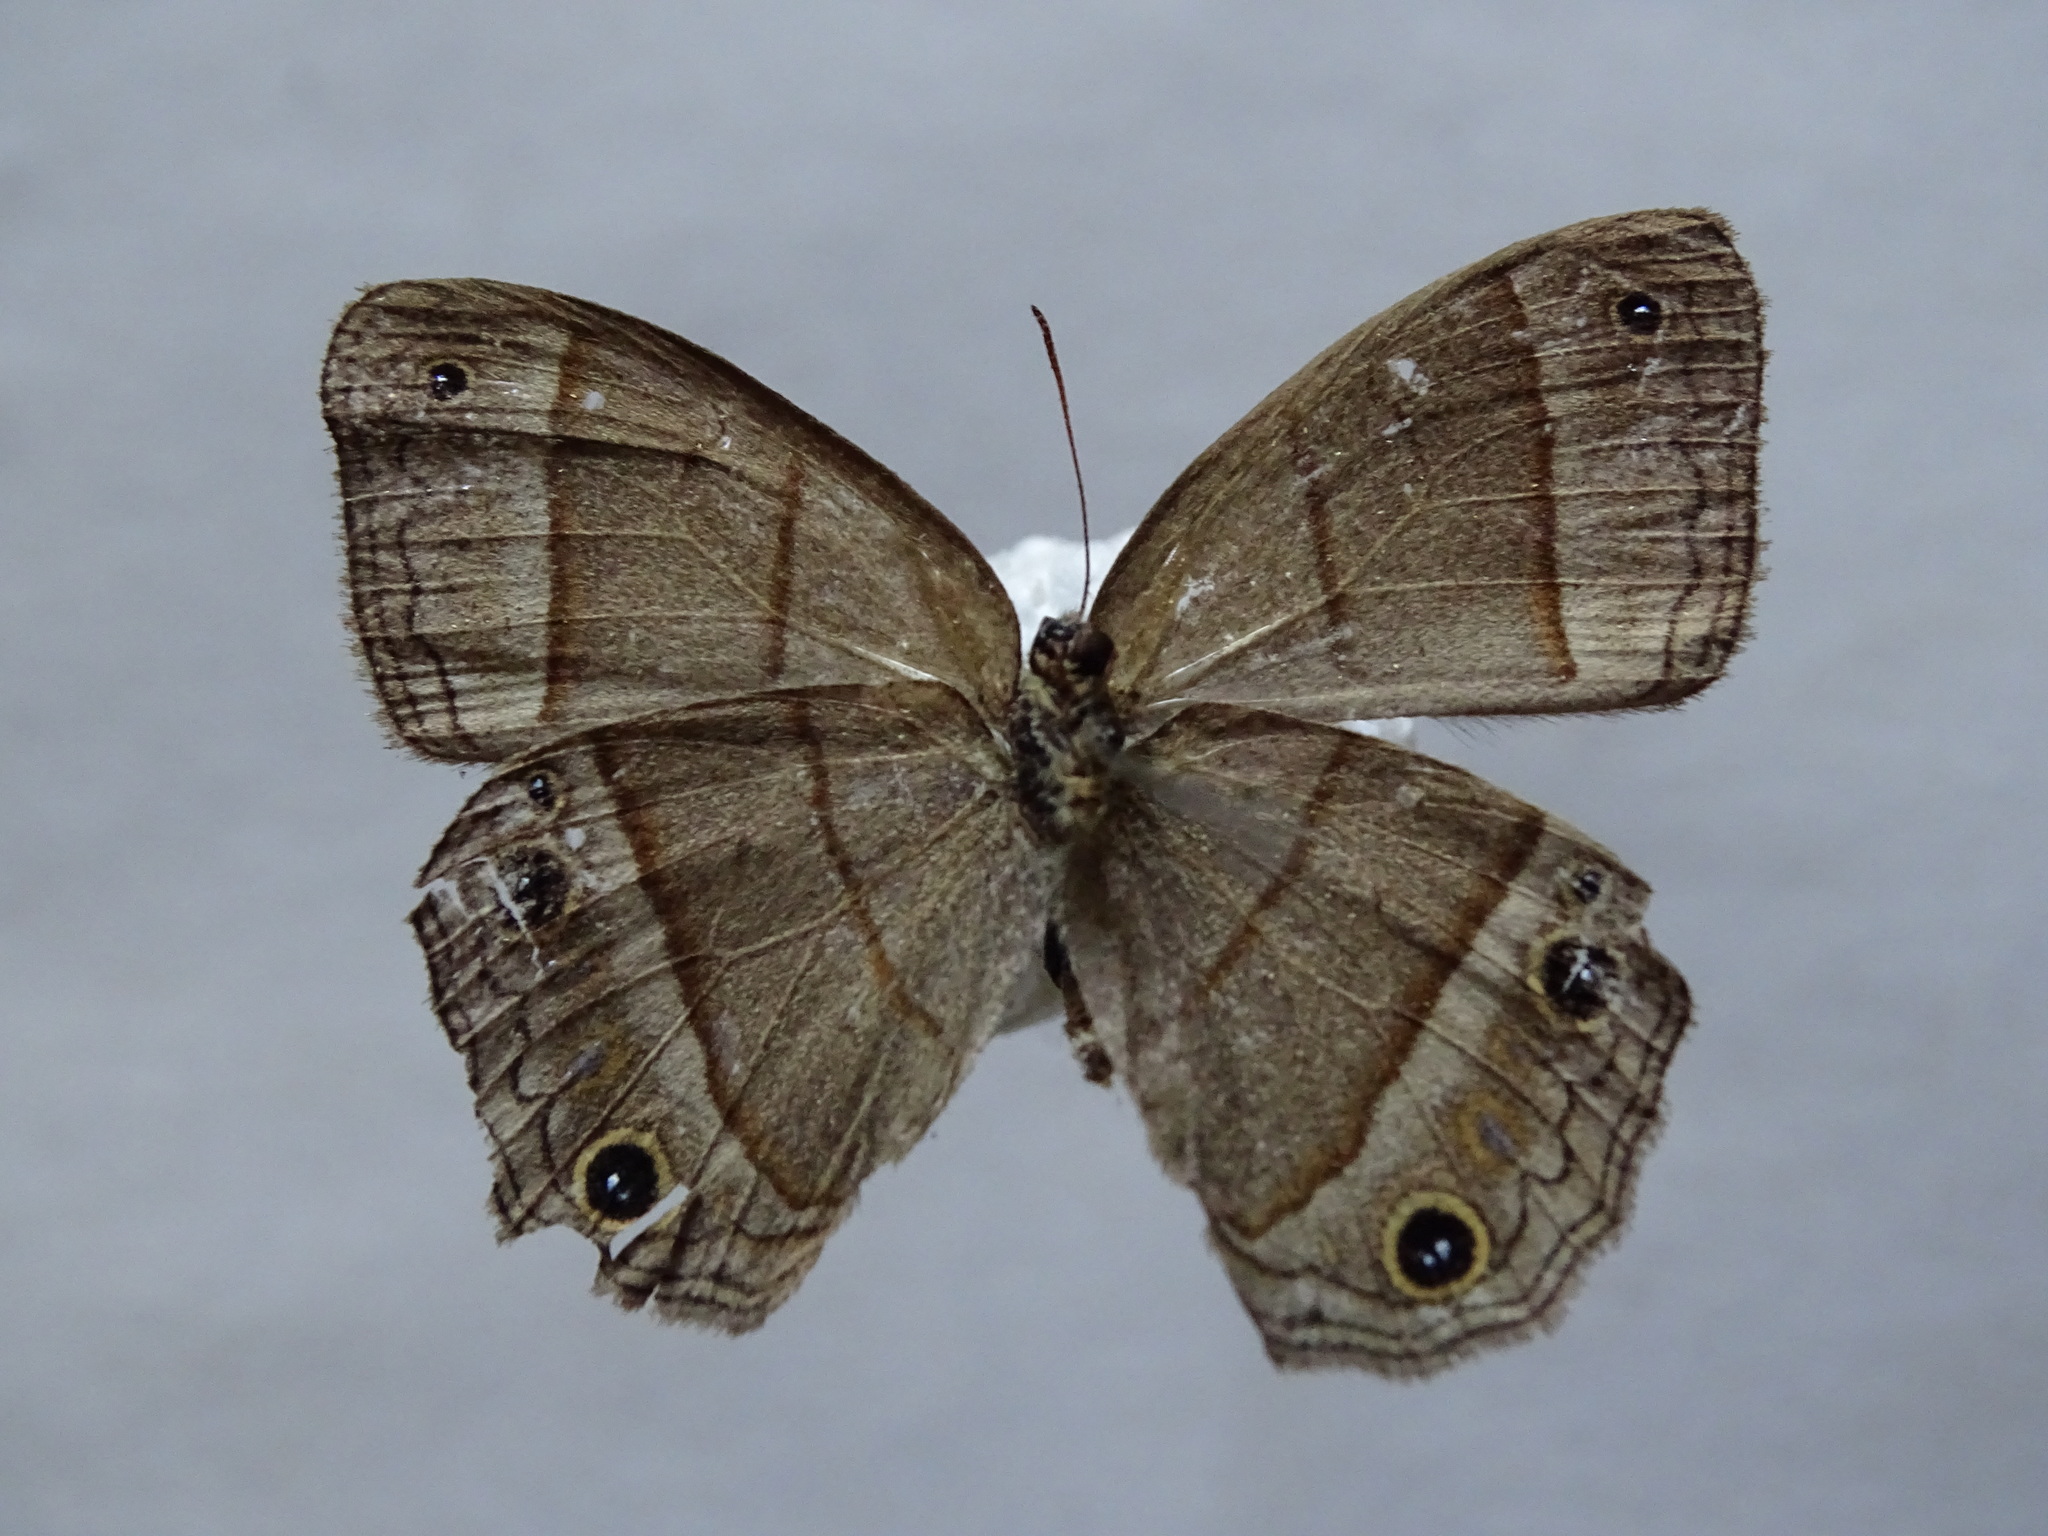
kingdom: Animalia
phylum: Arthropoda
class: Insecta
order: Lepidoptera
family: Nymphalidae
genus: Euptychia
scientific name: Euptychia Cissia pompilia
